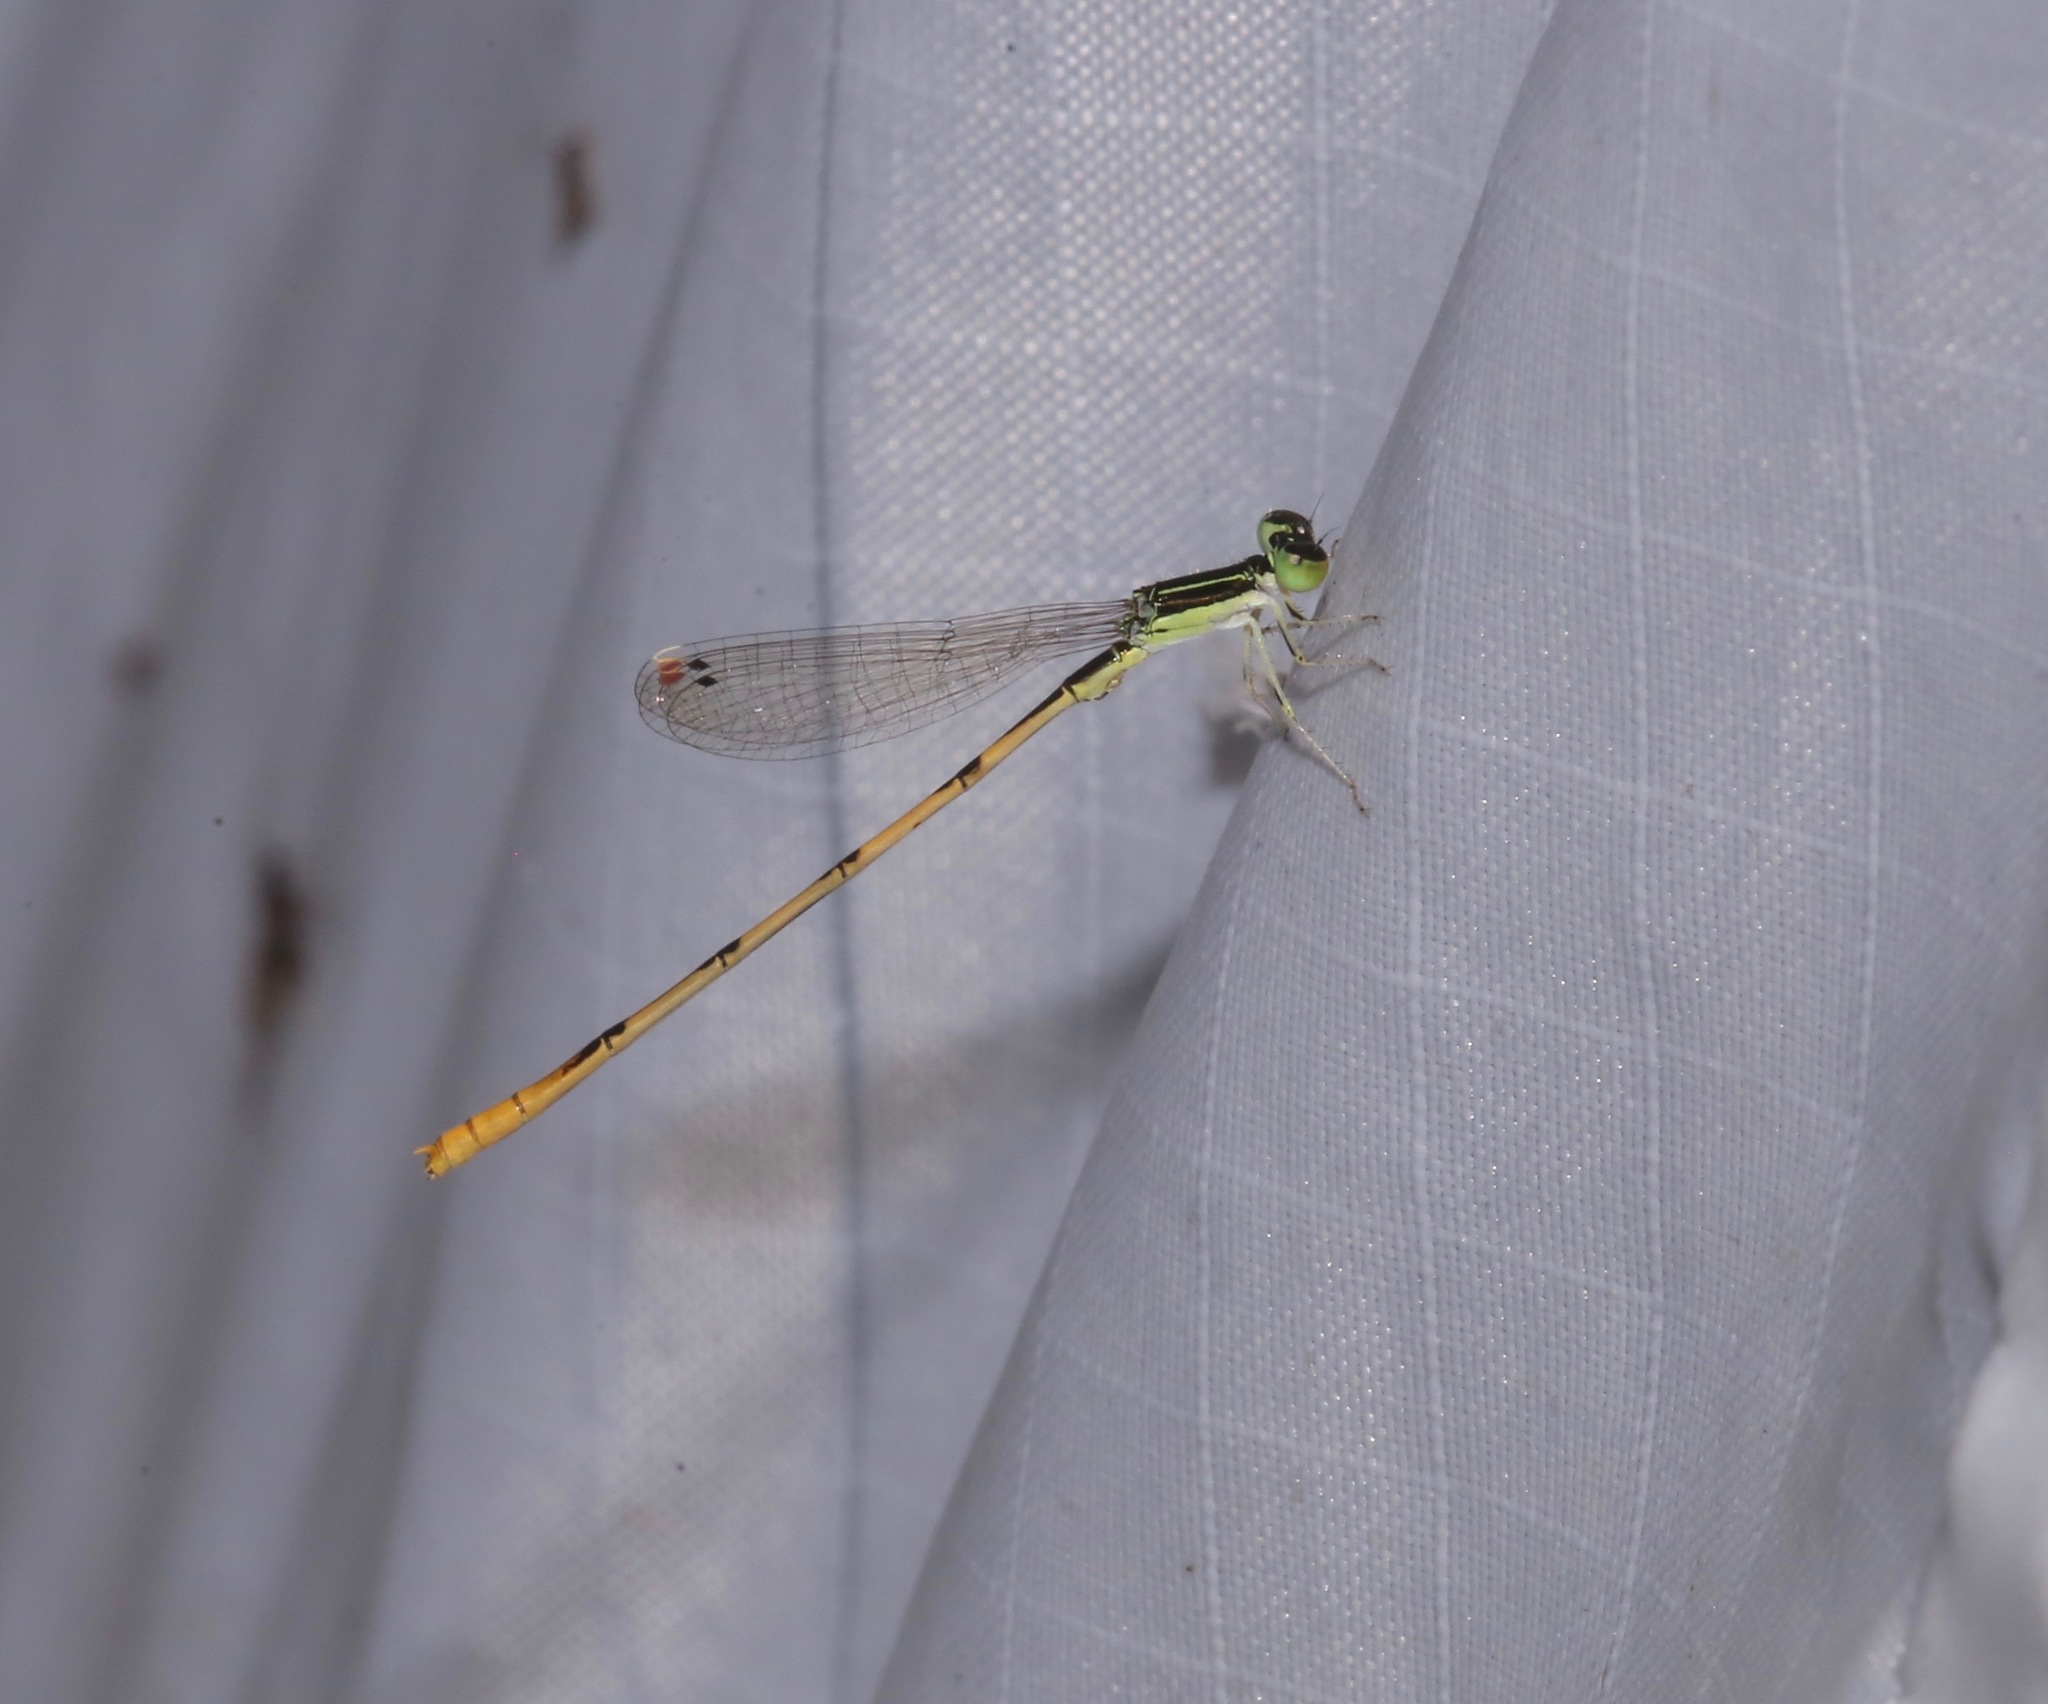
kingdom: Animalia
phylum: Arthropoda
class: Insecta
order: Odonata
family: Coenagrionidae
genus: Ischnura
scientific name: Ischnura hastata
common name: Citrine forktail
